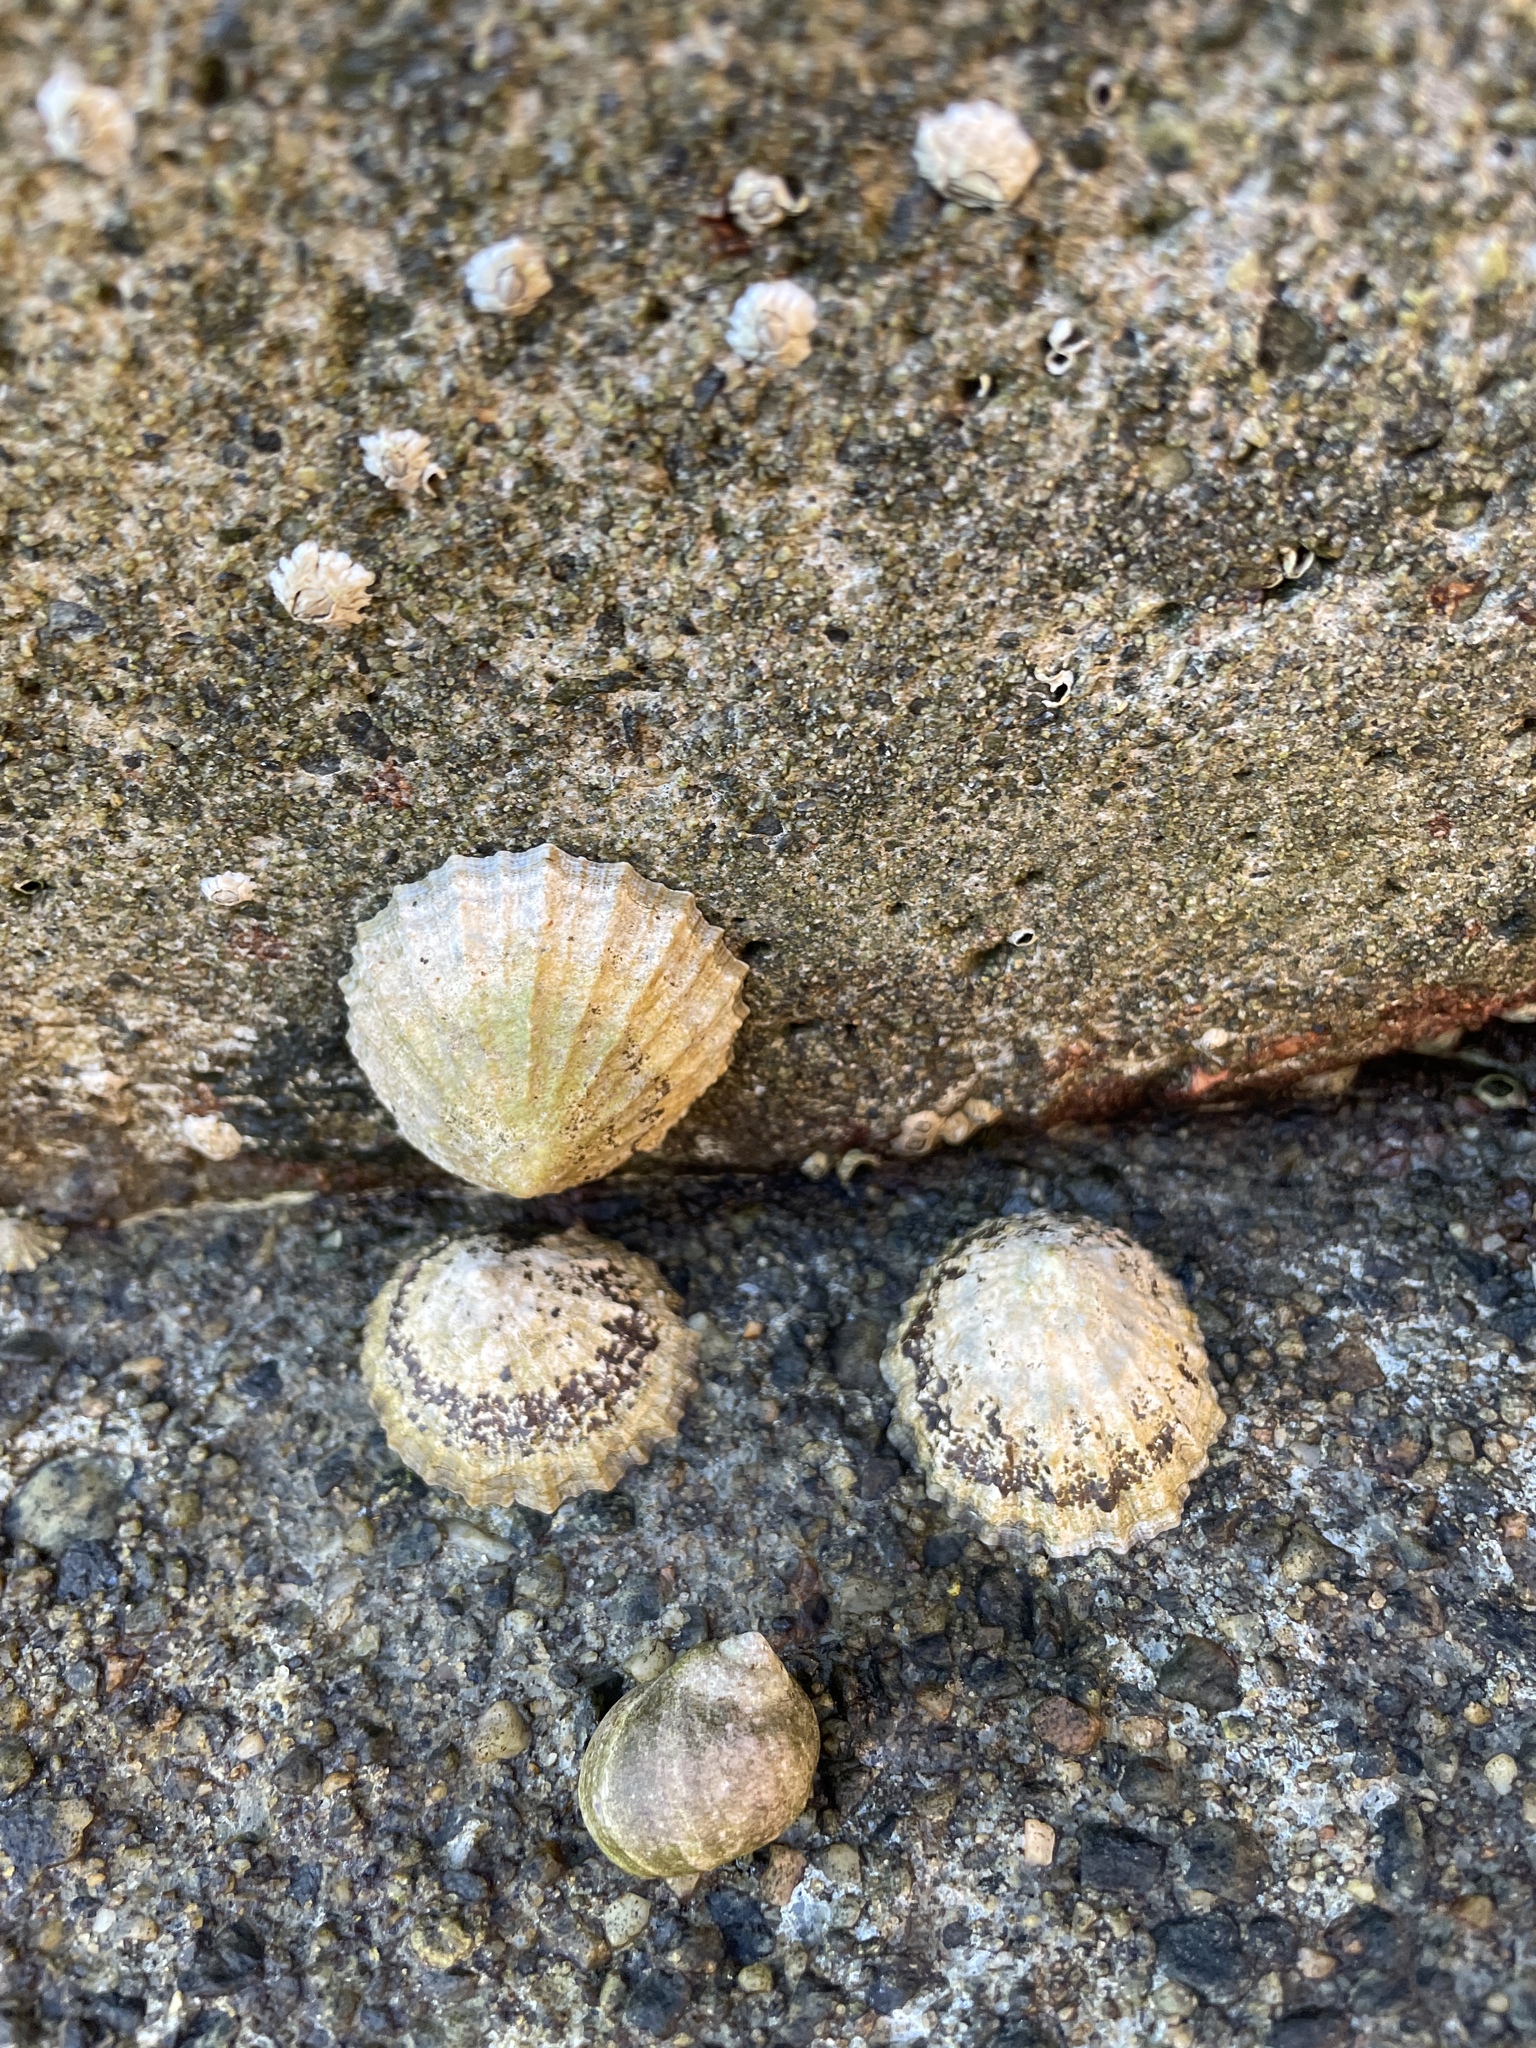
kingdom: Animalia
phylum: Mollusca
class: Gastropoda
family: Patellidae
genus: Patella
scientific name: Patella vulgata
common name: Common limpet
